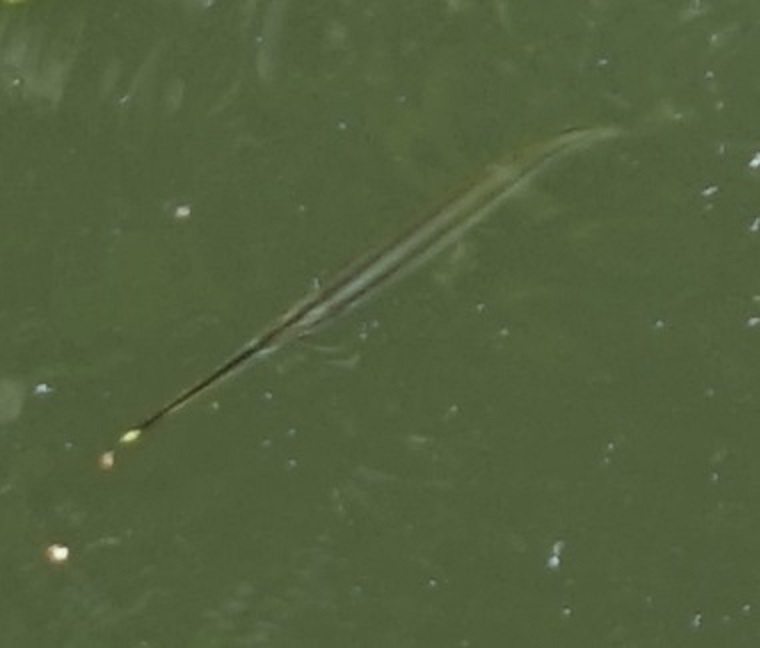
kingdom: Animalia
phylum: Chordata
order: Beloniformes
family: Zenarchopteridae
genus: Zenarchopterus
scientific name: Zenarchopterus buffonis
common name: Buffon's river-garfish
